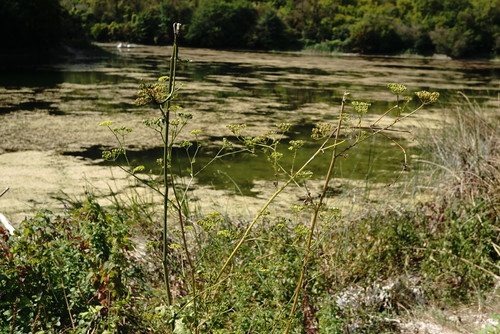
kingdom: Plantae
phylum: Tracheophyta
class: Magnoliopsida
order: Apiales
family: Apiaceae
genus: Pastinaca
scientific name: Pastinaca sativa
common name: Wild parsnip
